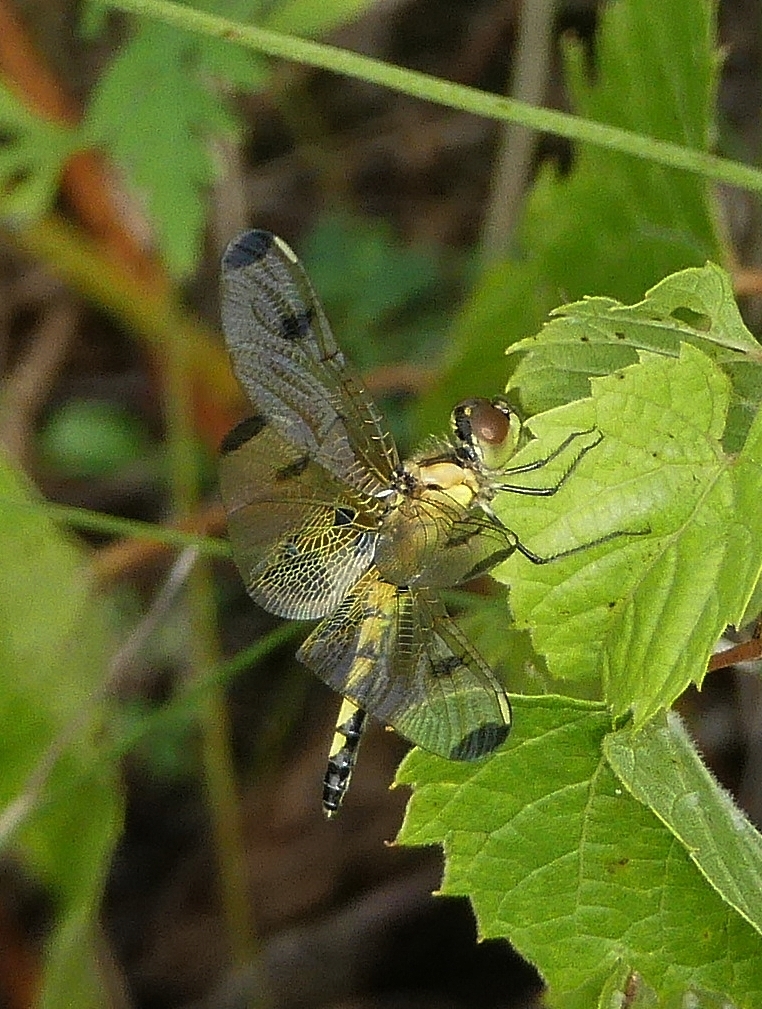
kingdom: Animalia
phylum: Arthropoda
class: Insecta
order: Odonata
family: Libellulidae
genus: Celithemis
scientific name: Celithemis elisa
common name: Calico pennant
